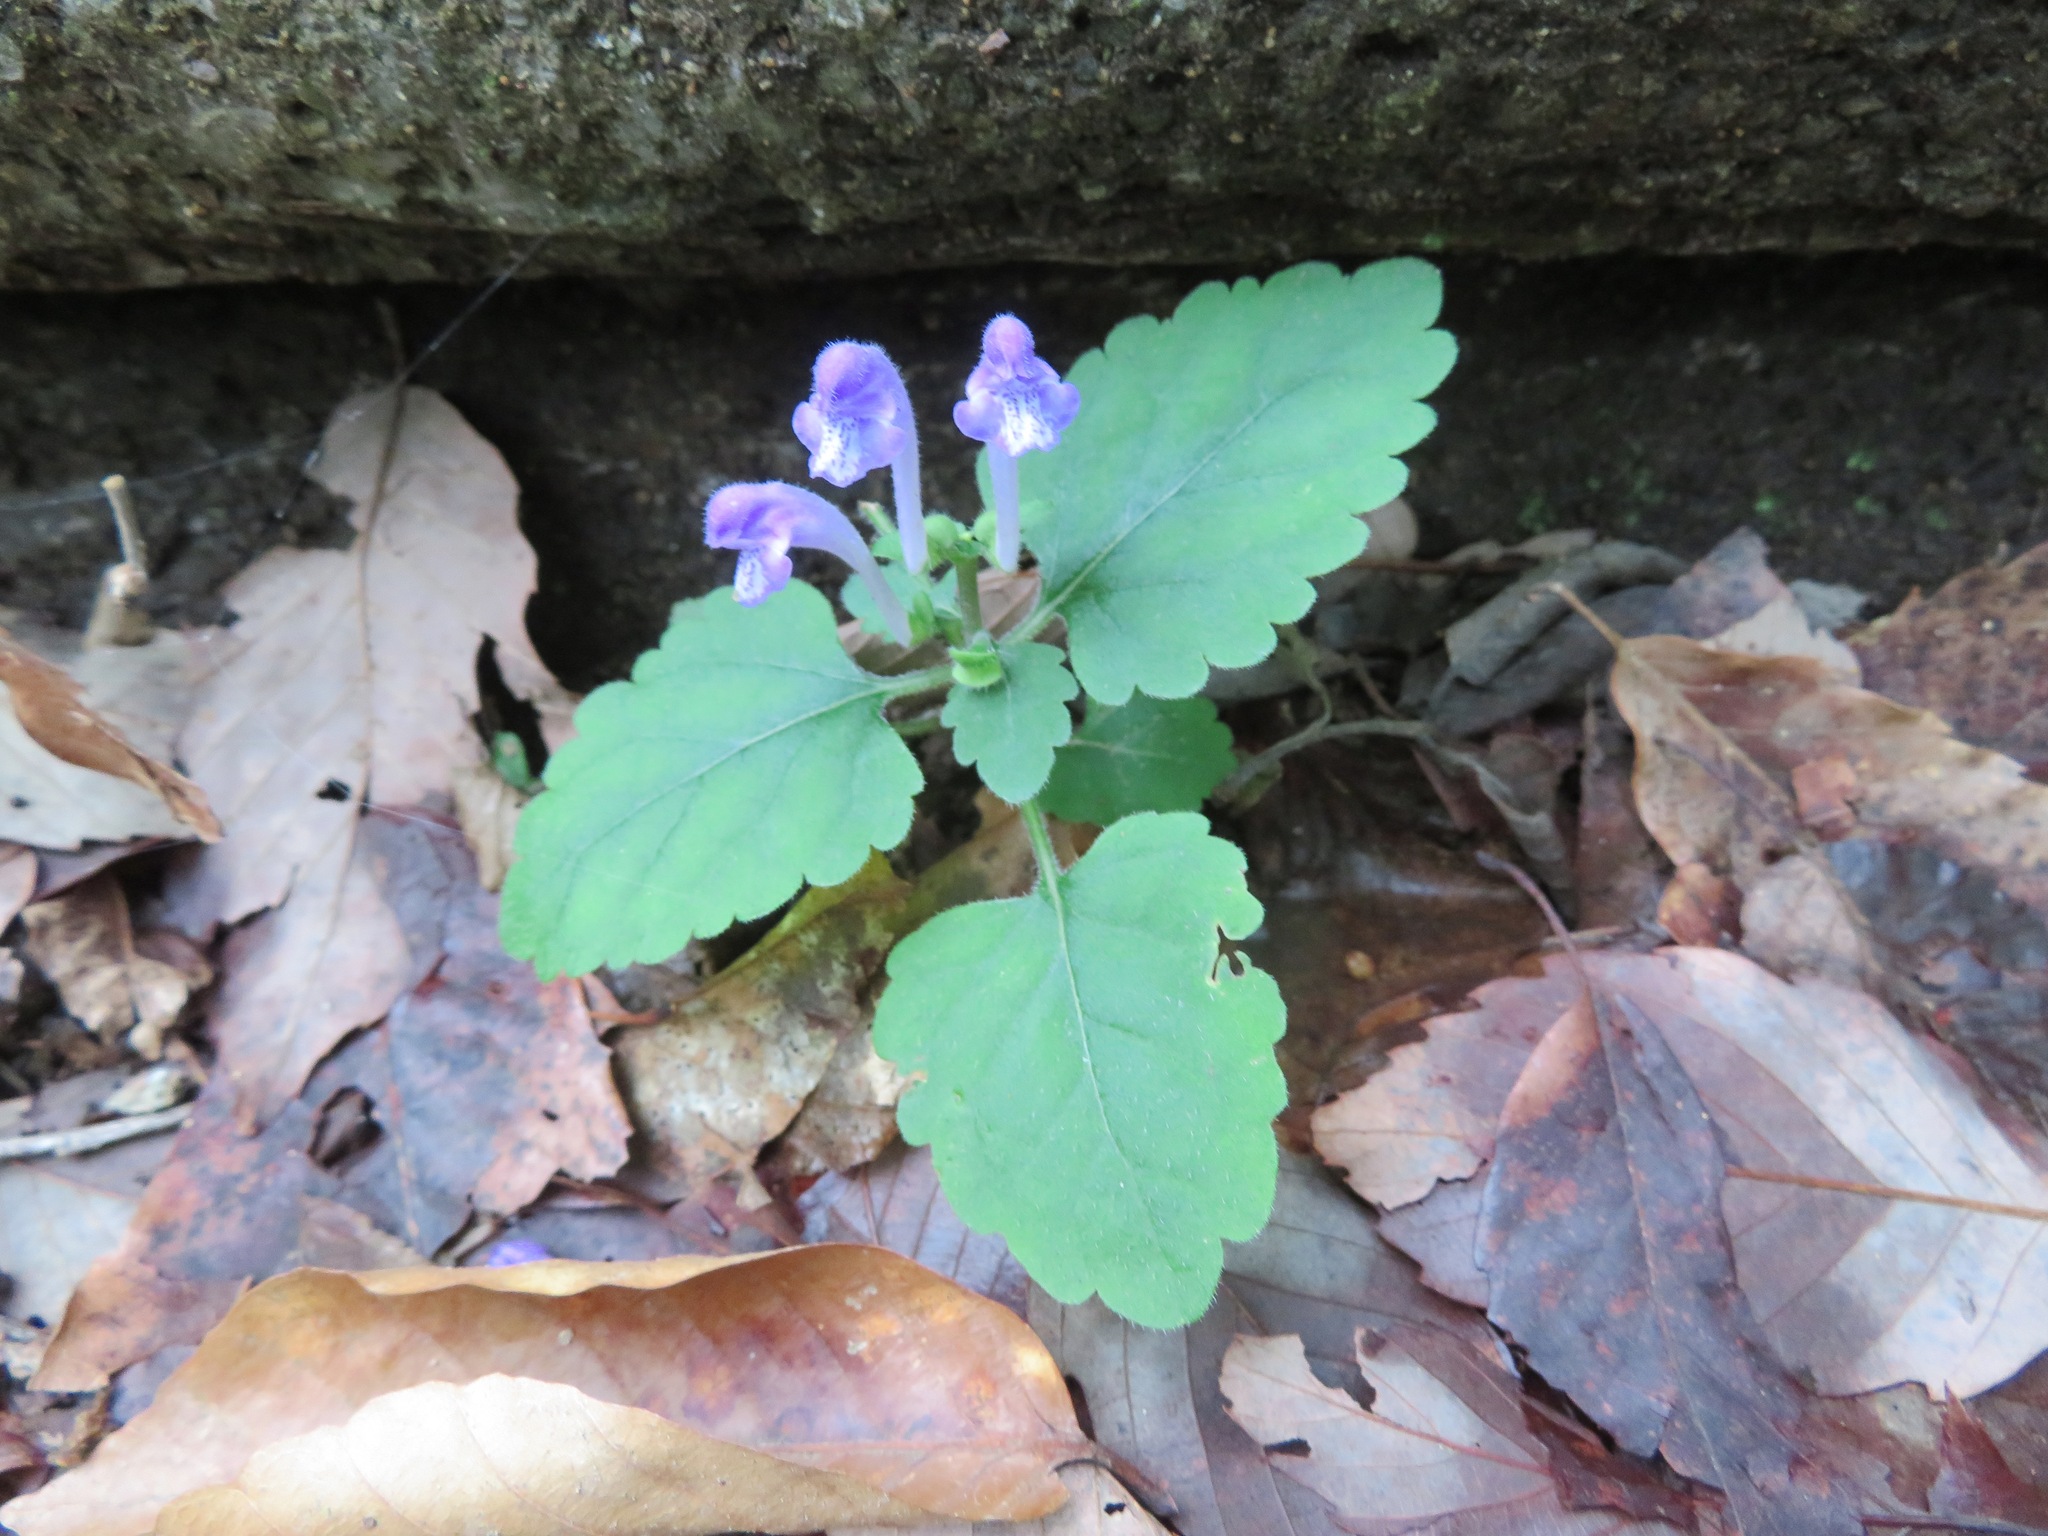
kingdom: Plantae
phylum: Tracheophyta
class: Magnoliopsida
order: Lamiales
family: Lamiaceae
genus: Scutellaria
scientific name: Scutellaria brachyspica
